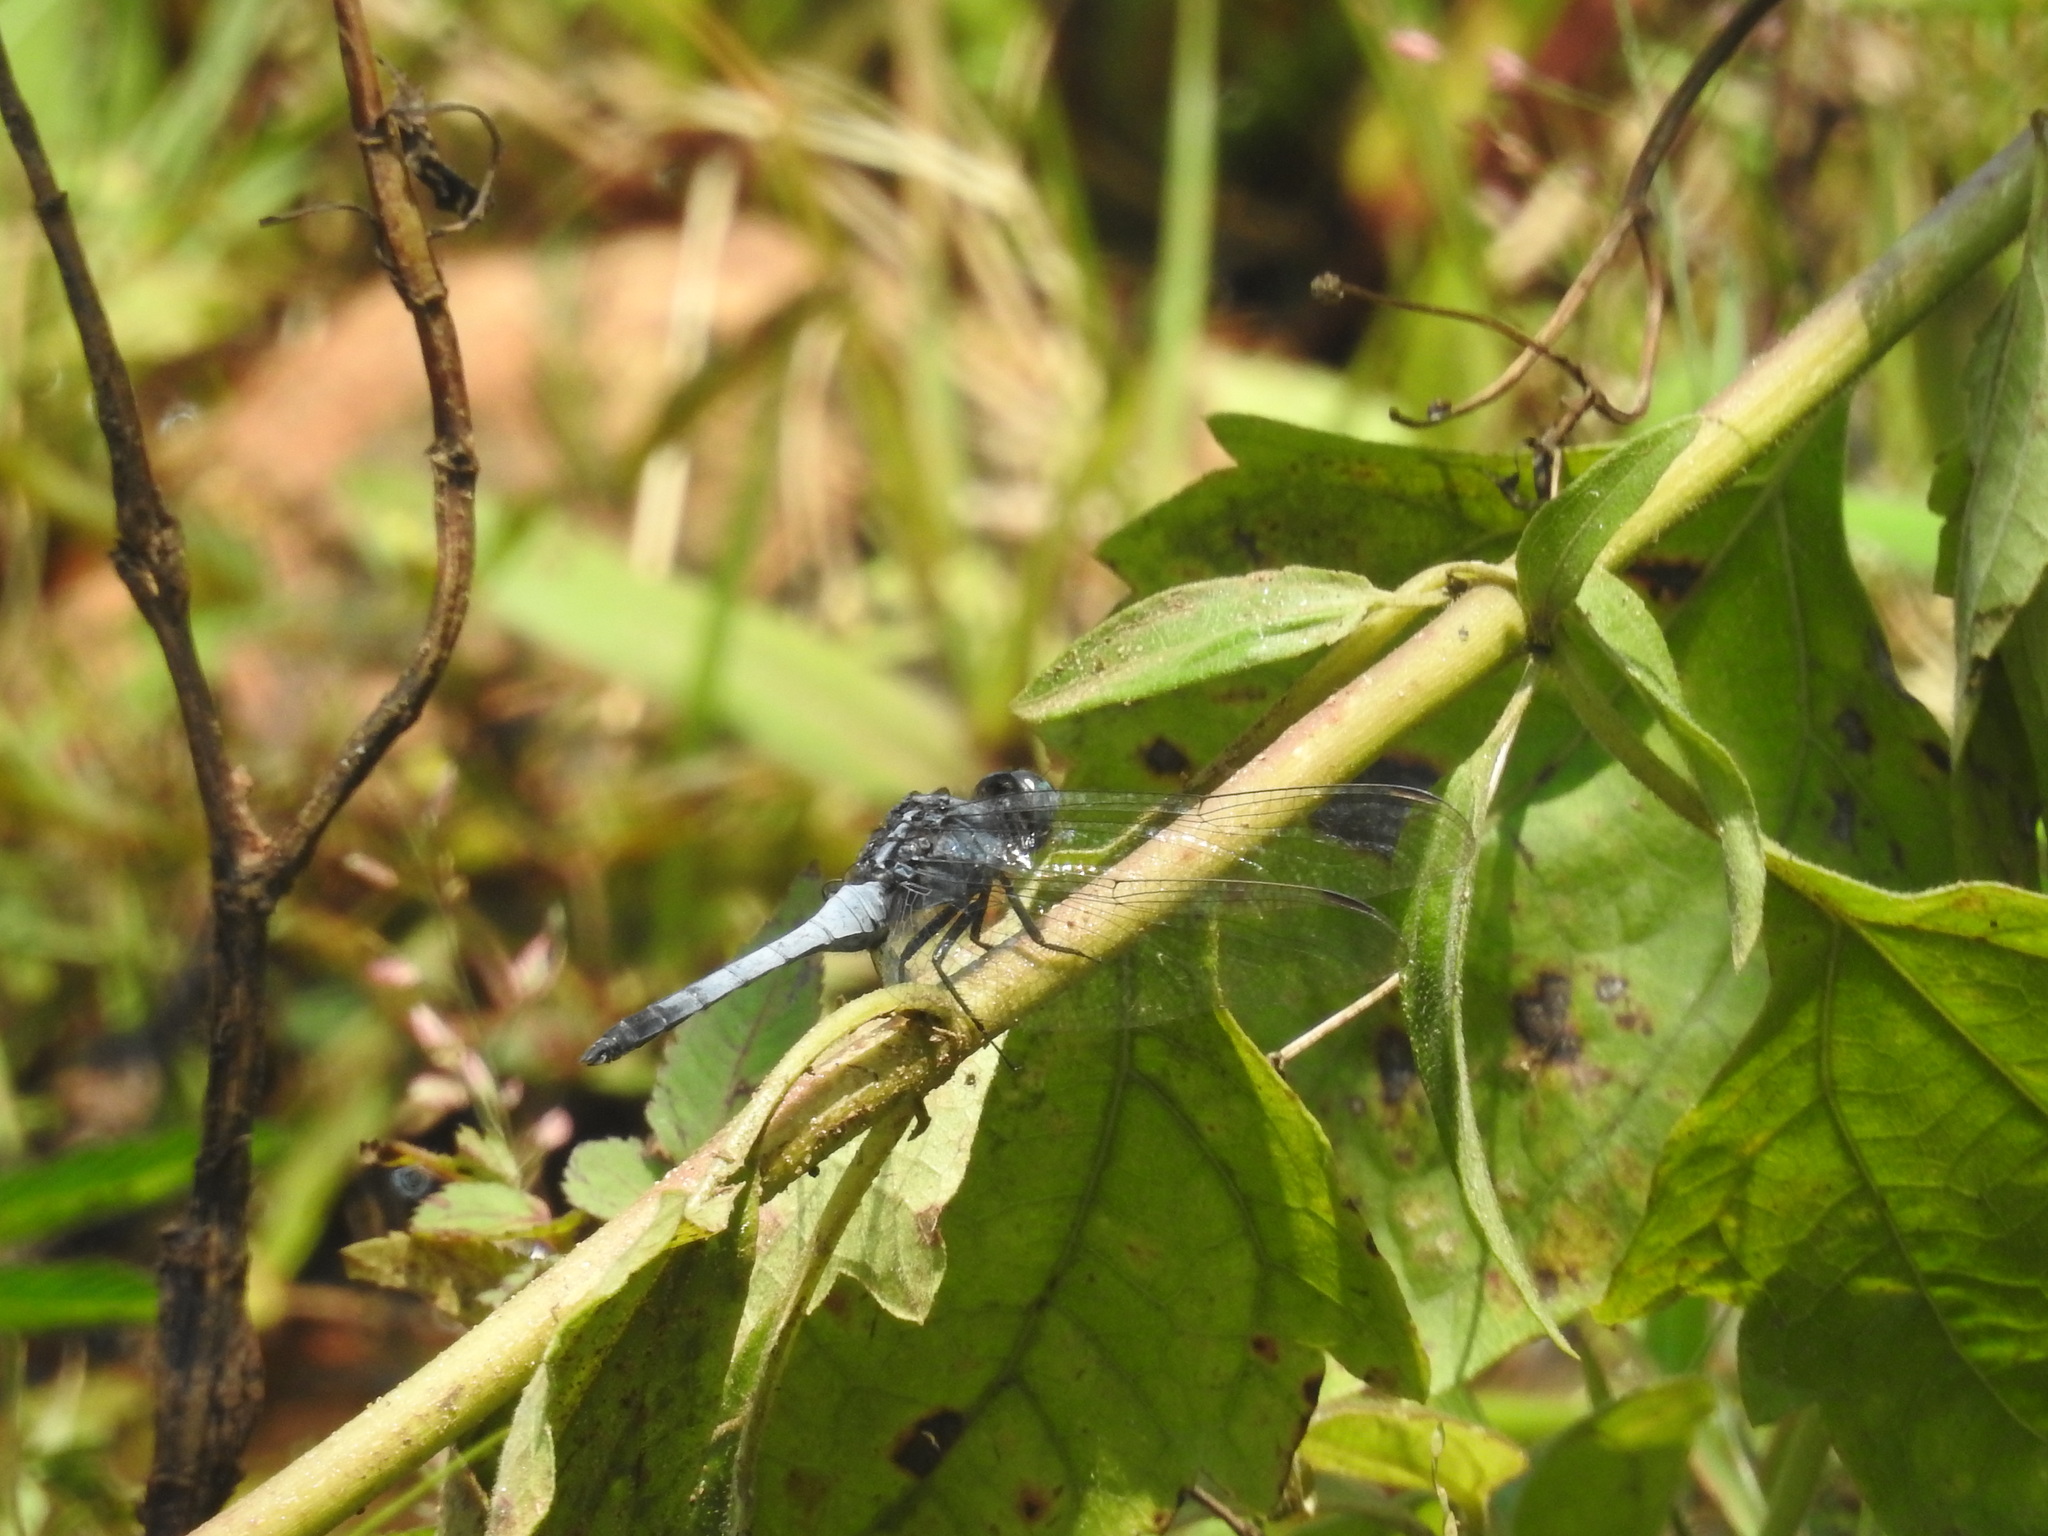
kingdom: Animalia
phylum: Arthropoda
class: Insecta
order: Odonata
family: Libellulidae
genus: Orthetrum
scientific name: Orthetrum glaucum
